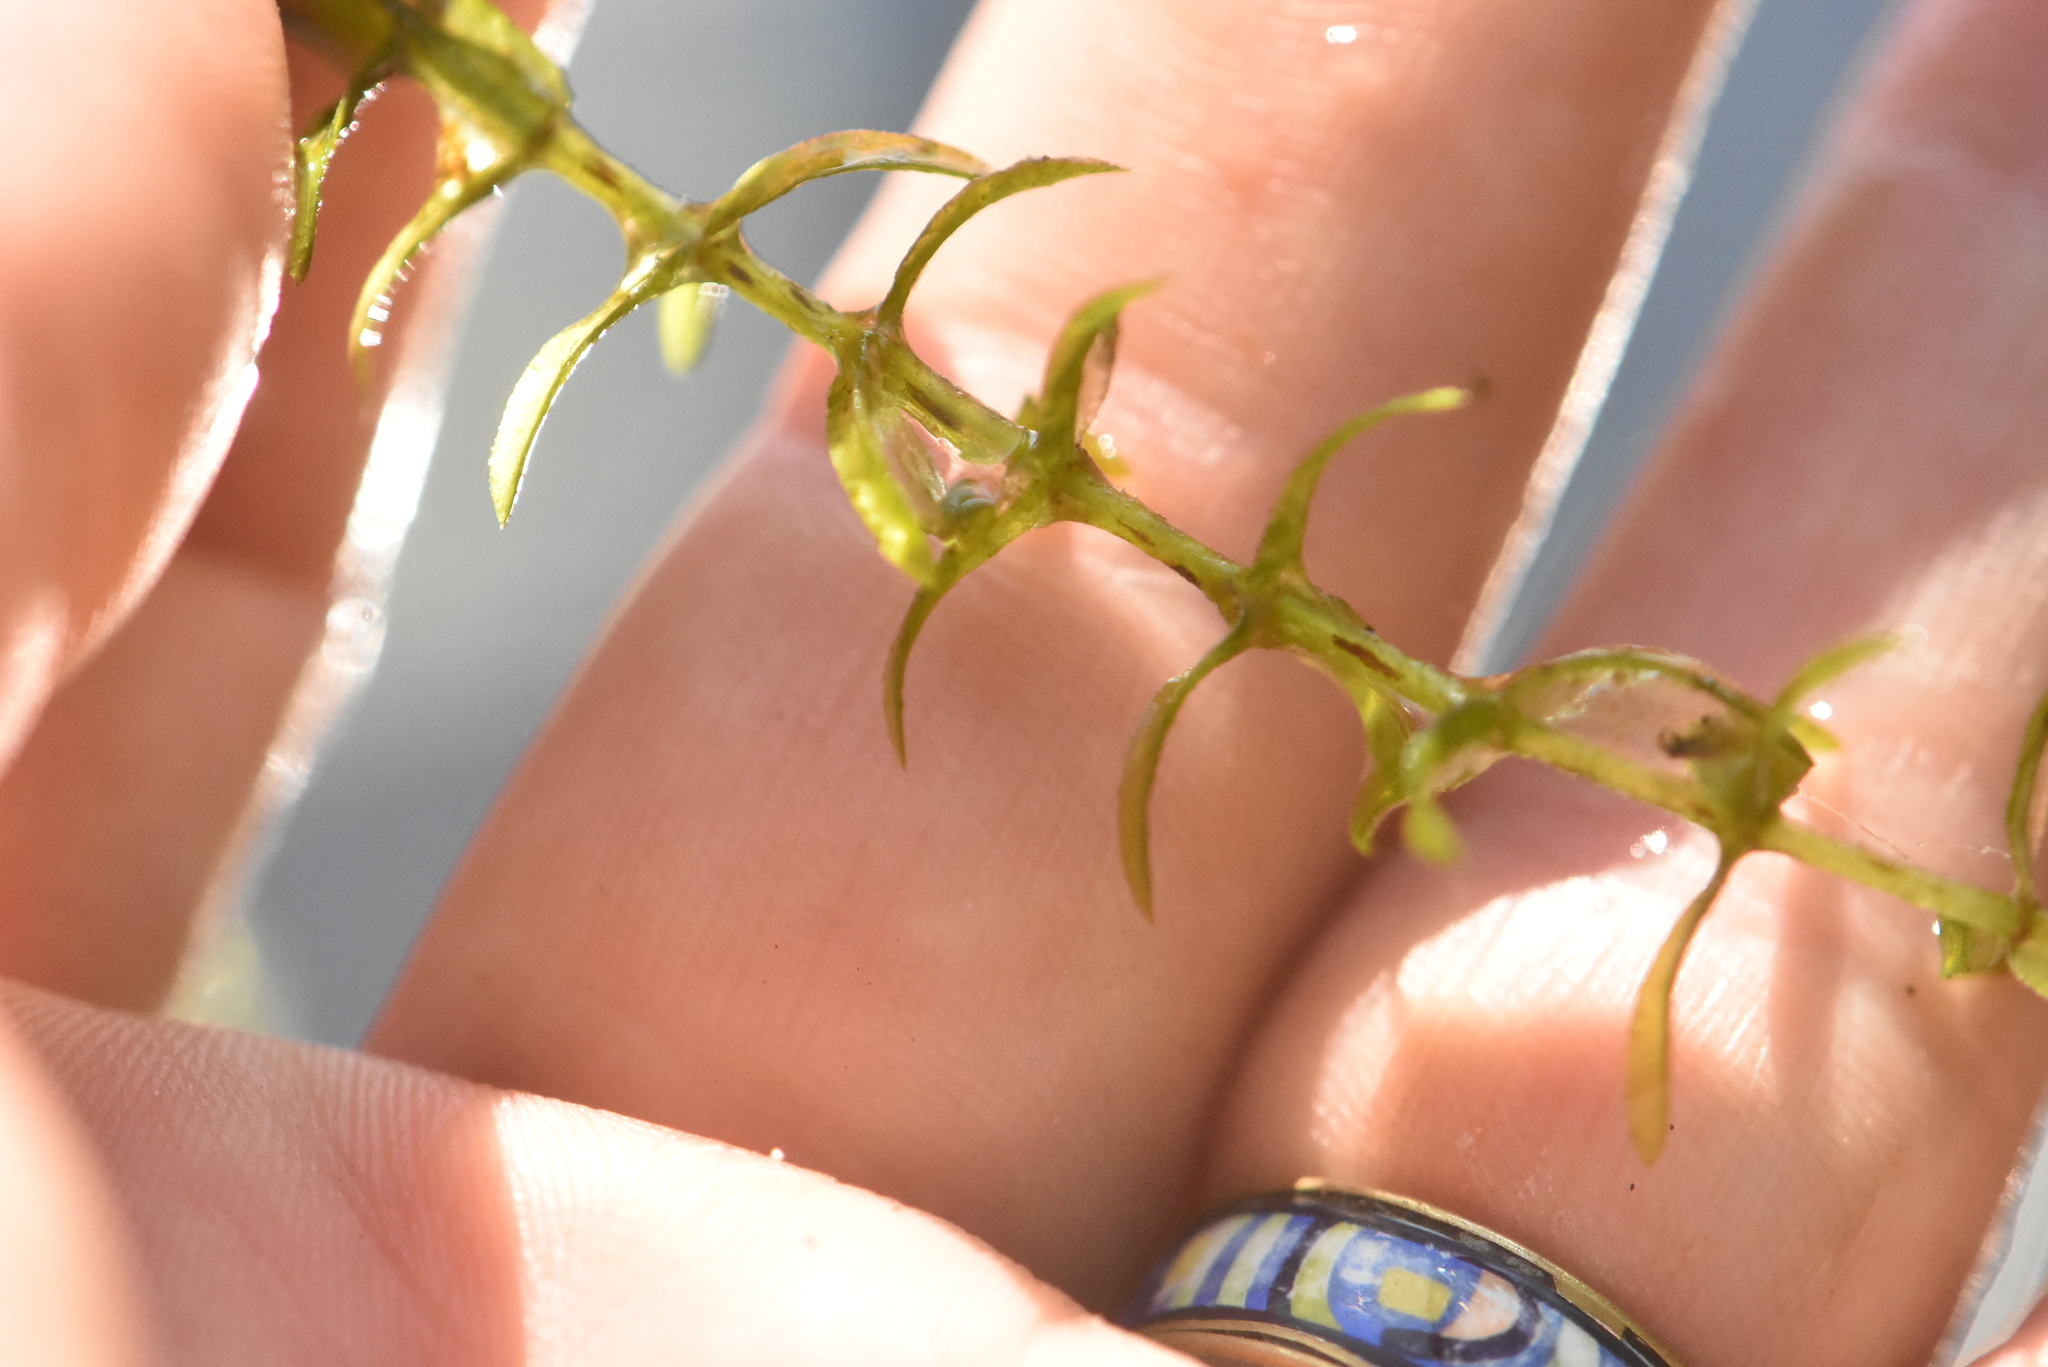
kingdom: Plantae
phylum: Tracheophyta
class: Liliopsida
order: Alismatales
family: Hydrocharitaceae
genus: Elodea
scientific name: Elodea canadensis
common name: Canadian waterweed
